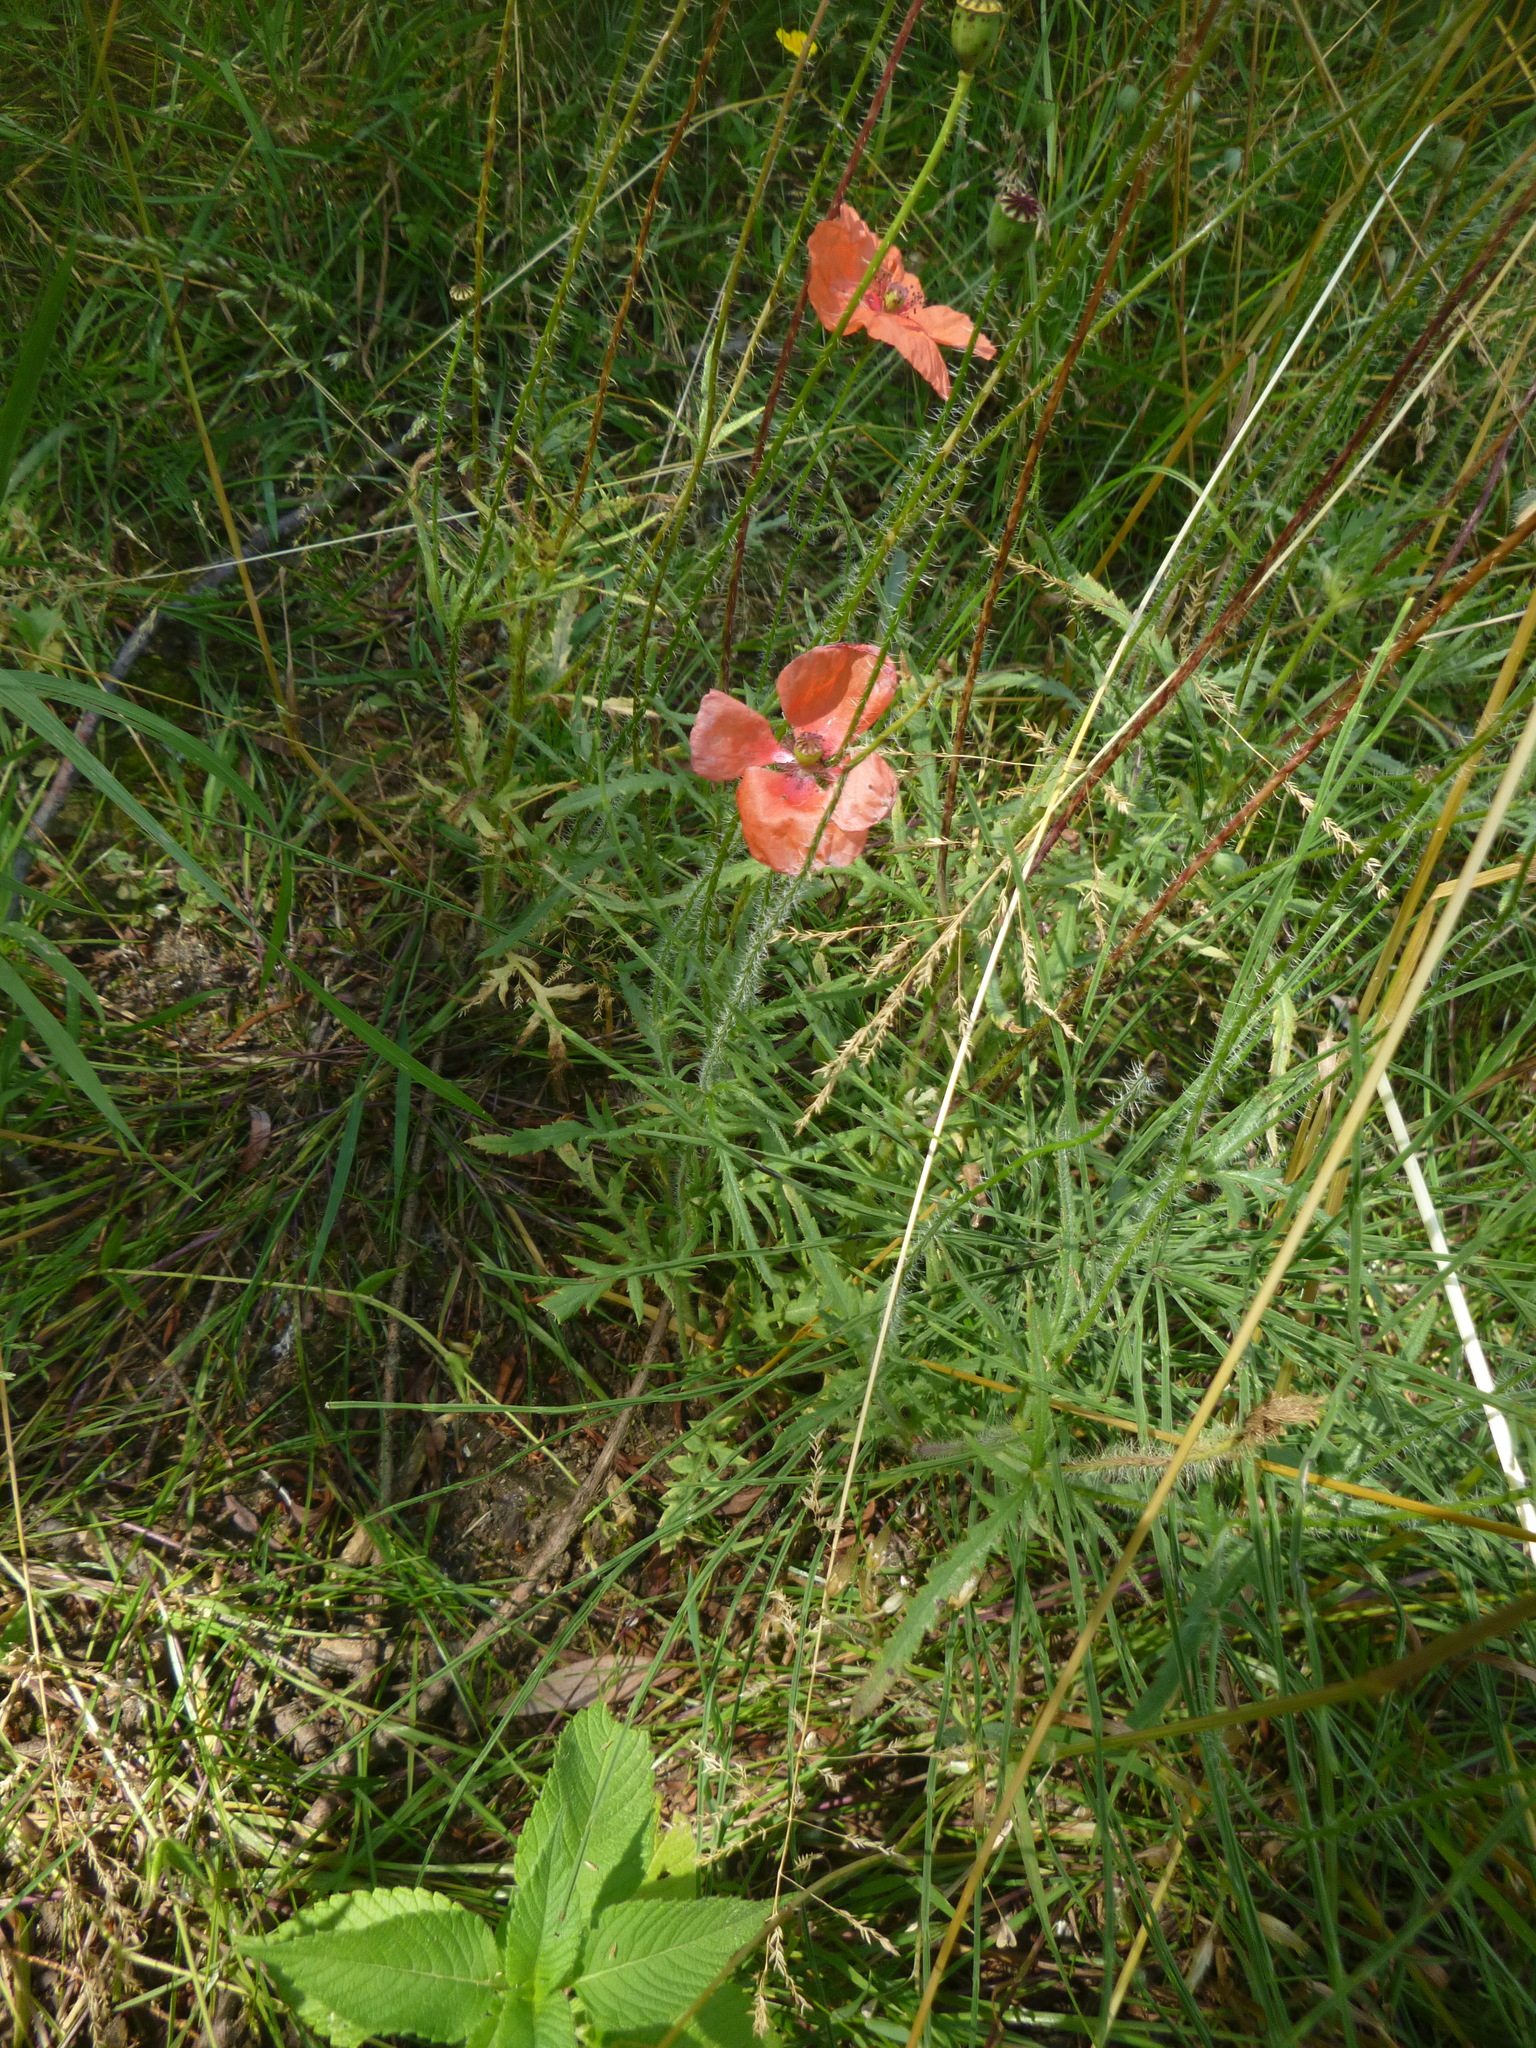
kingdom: Plantae
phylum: Tracheophyta
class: Magnoliopsida
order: Ranunculales
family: Papaveraceae
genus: Papaver
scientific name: Papaver rhoeas
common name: Corn poppy
